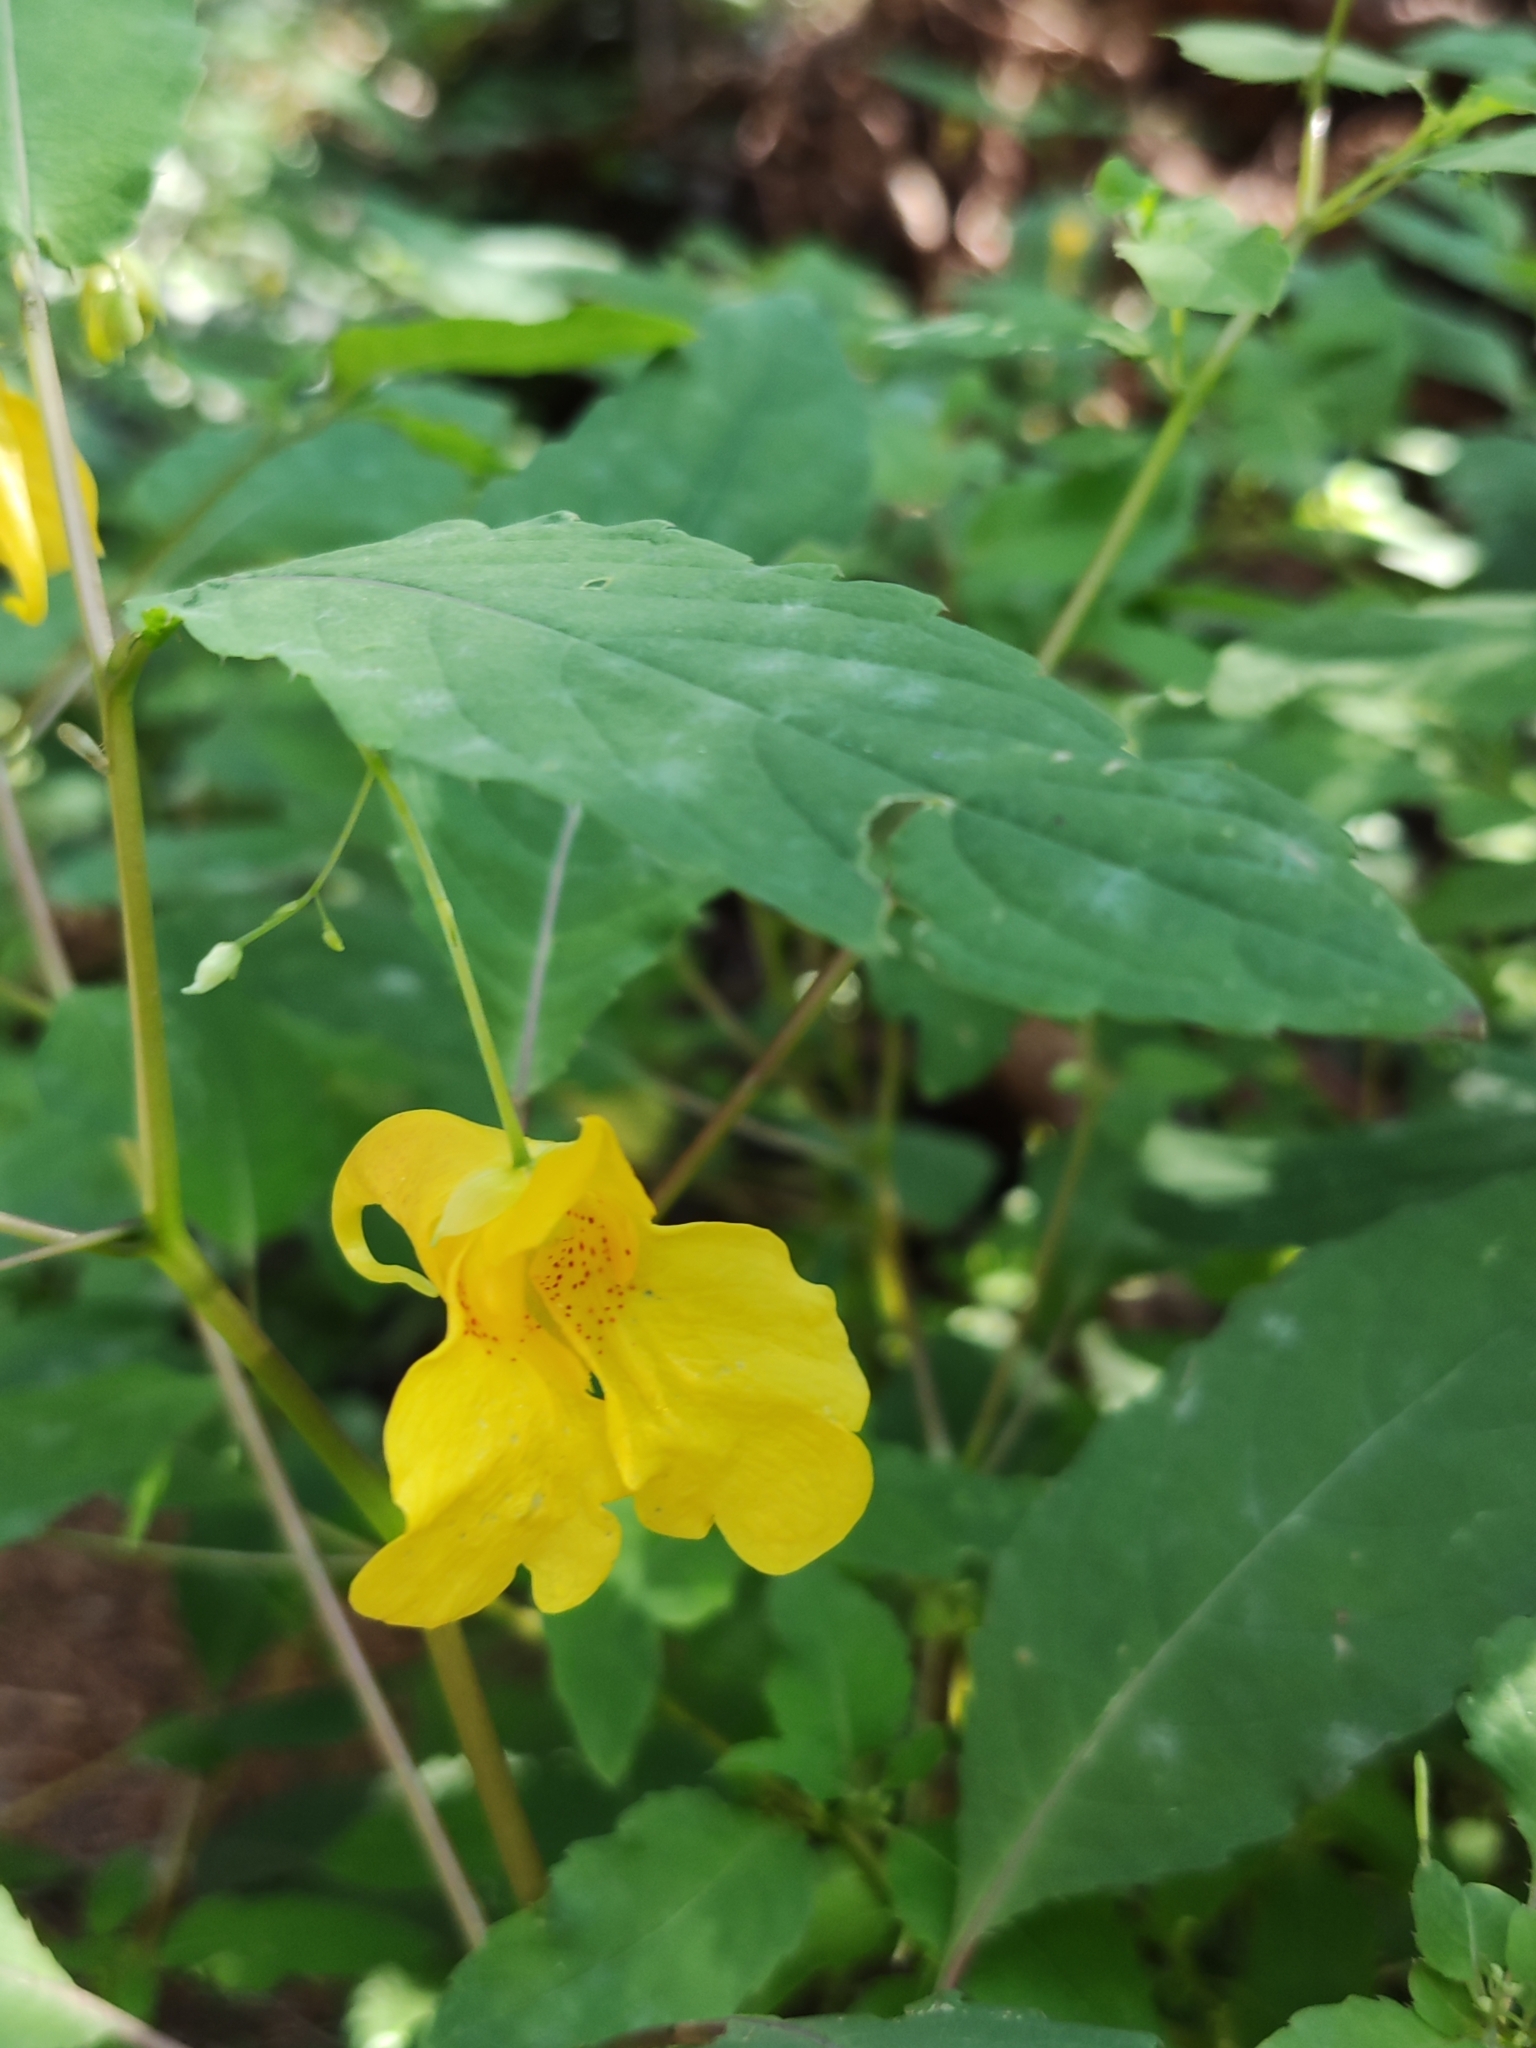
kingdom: Plantae
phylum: Tracheophyta
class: Magnoliopsida
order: Ericales
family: Balsaminaceae
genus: Impatiens
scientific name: Impatiens noli-tangere
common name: Touch-me-not balsam
